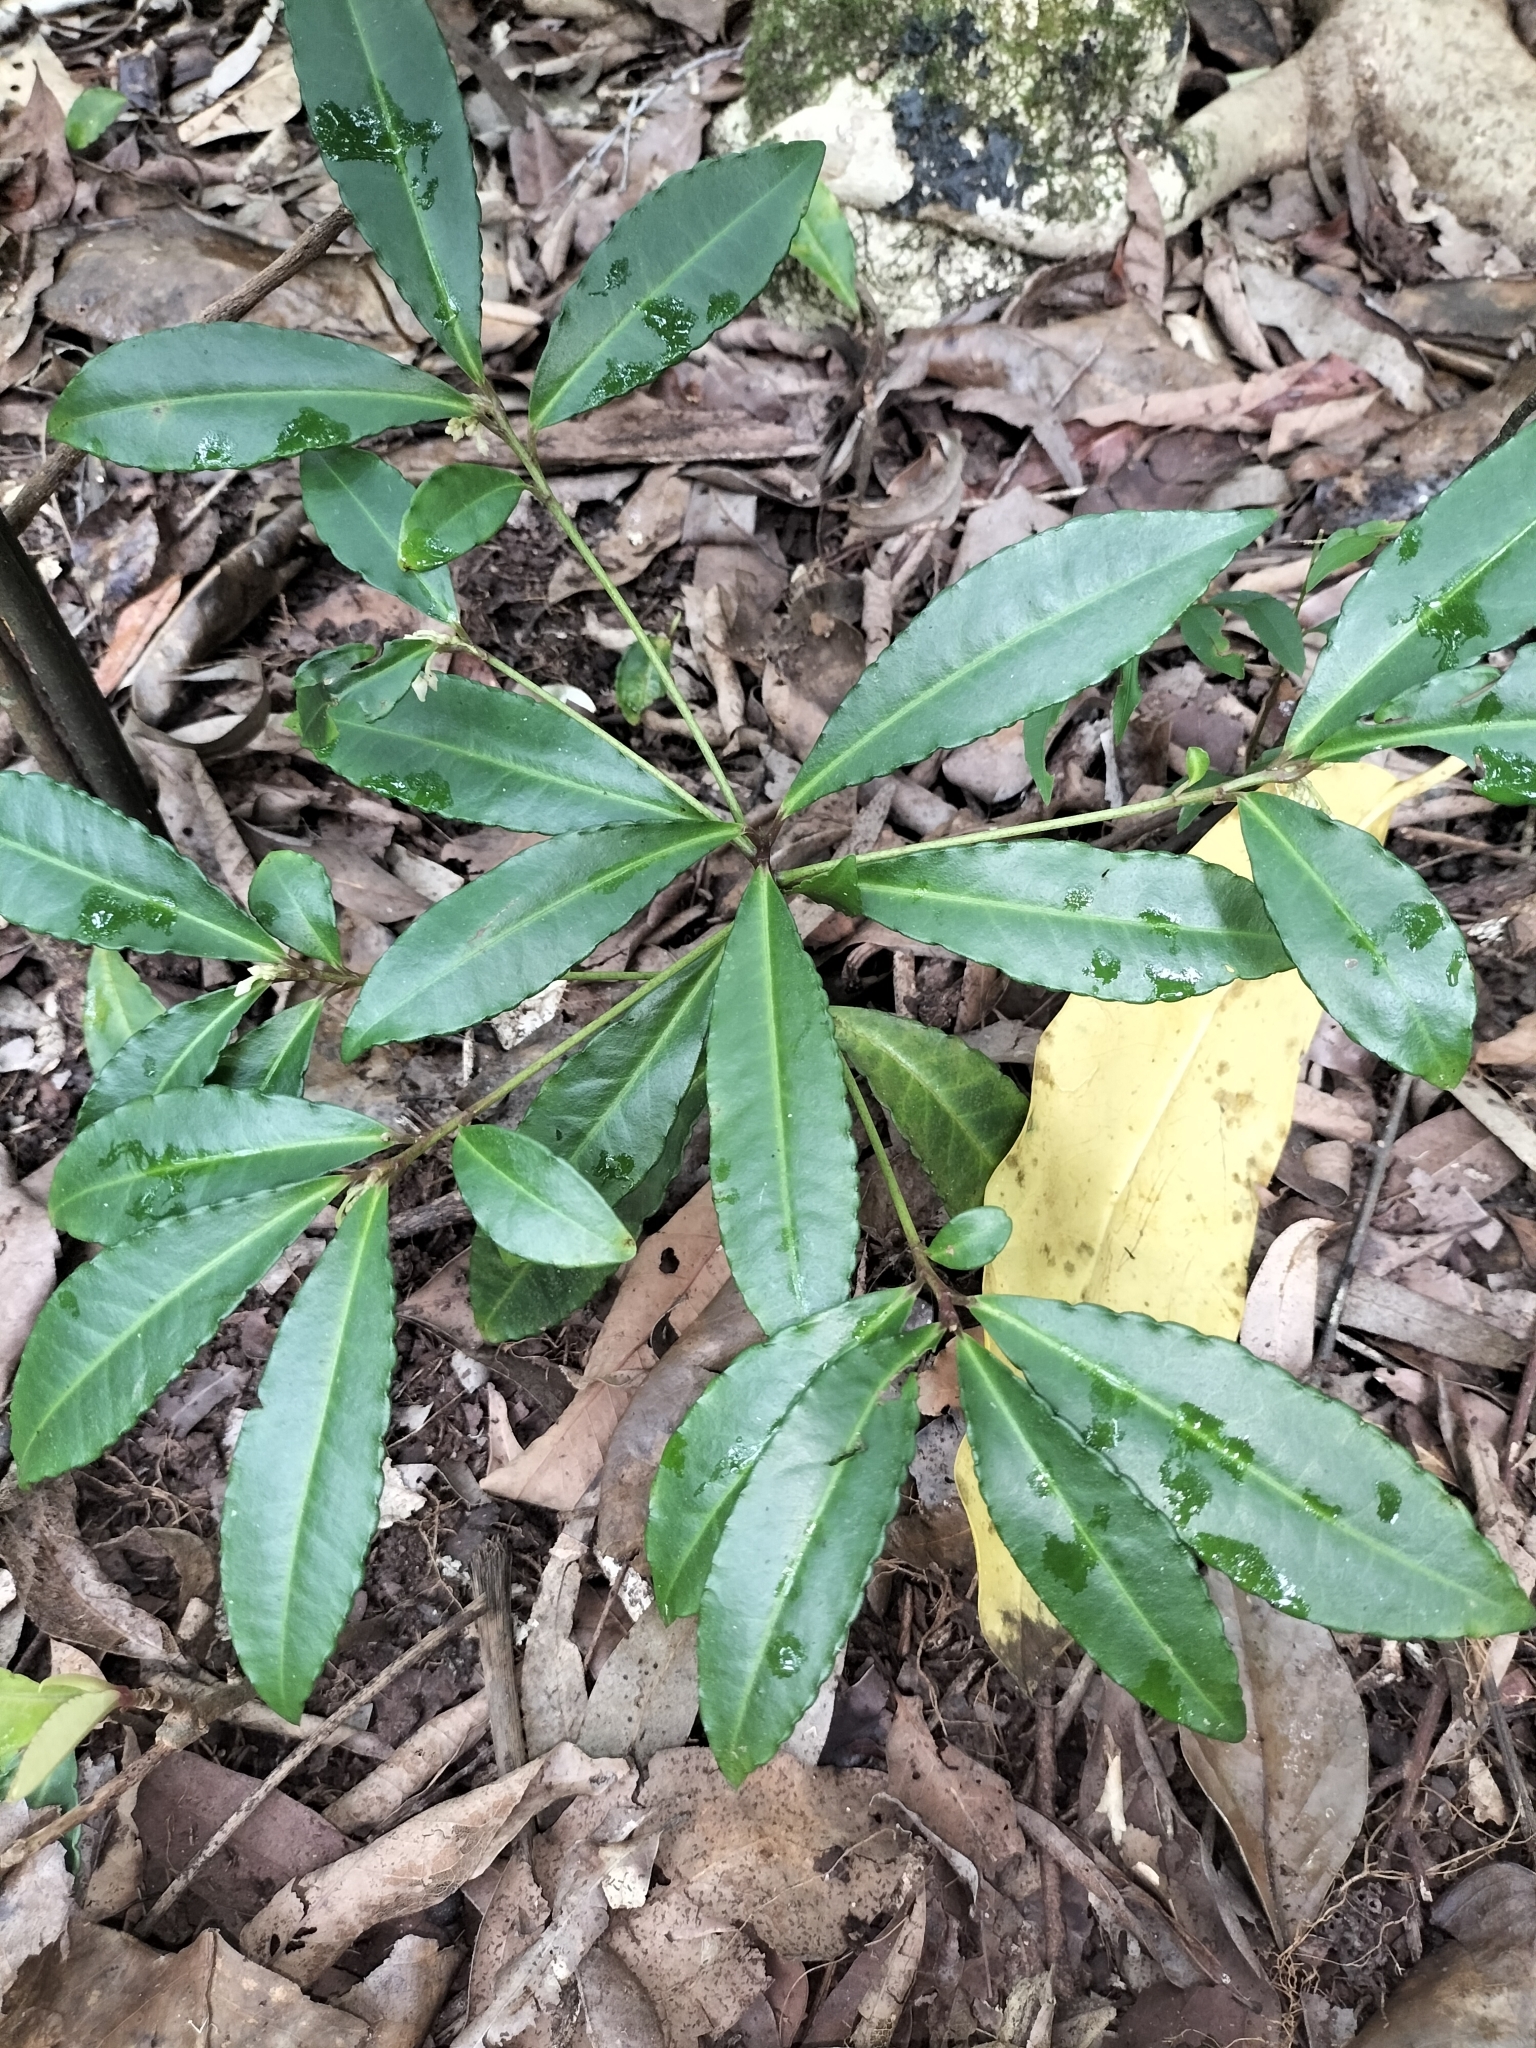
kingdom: Plantae
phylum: Tracheophyta
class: Magnoliopsida
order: Ericales
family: Primulaceae
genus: Ardisia
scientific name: Ardisia crenata
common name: Hen's eyes
